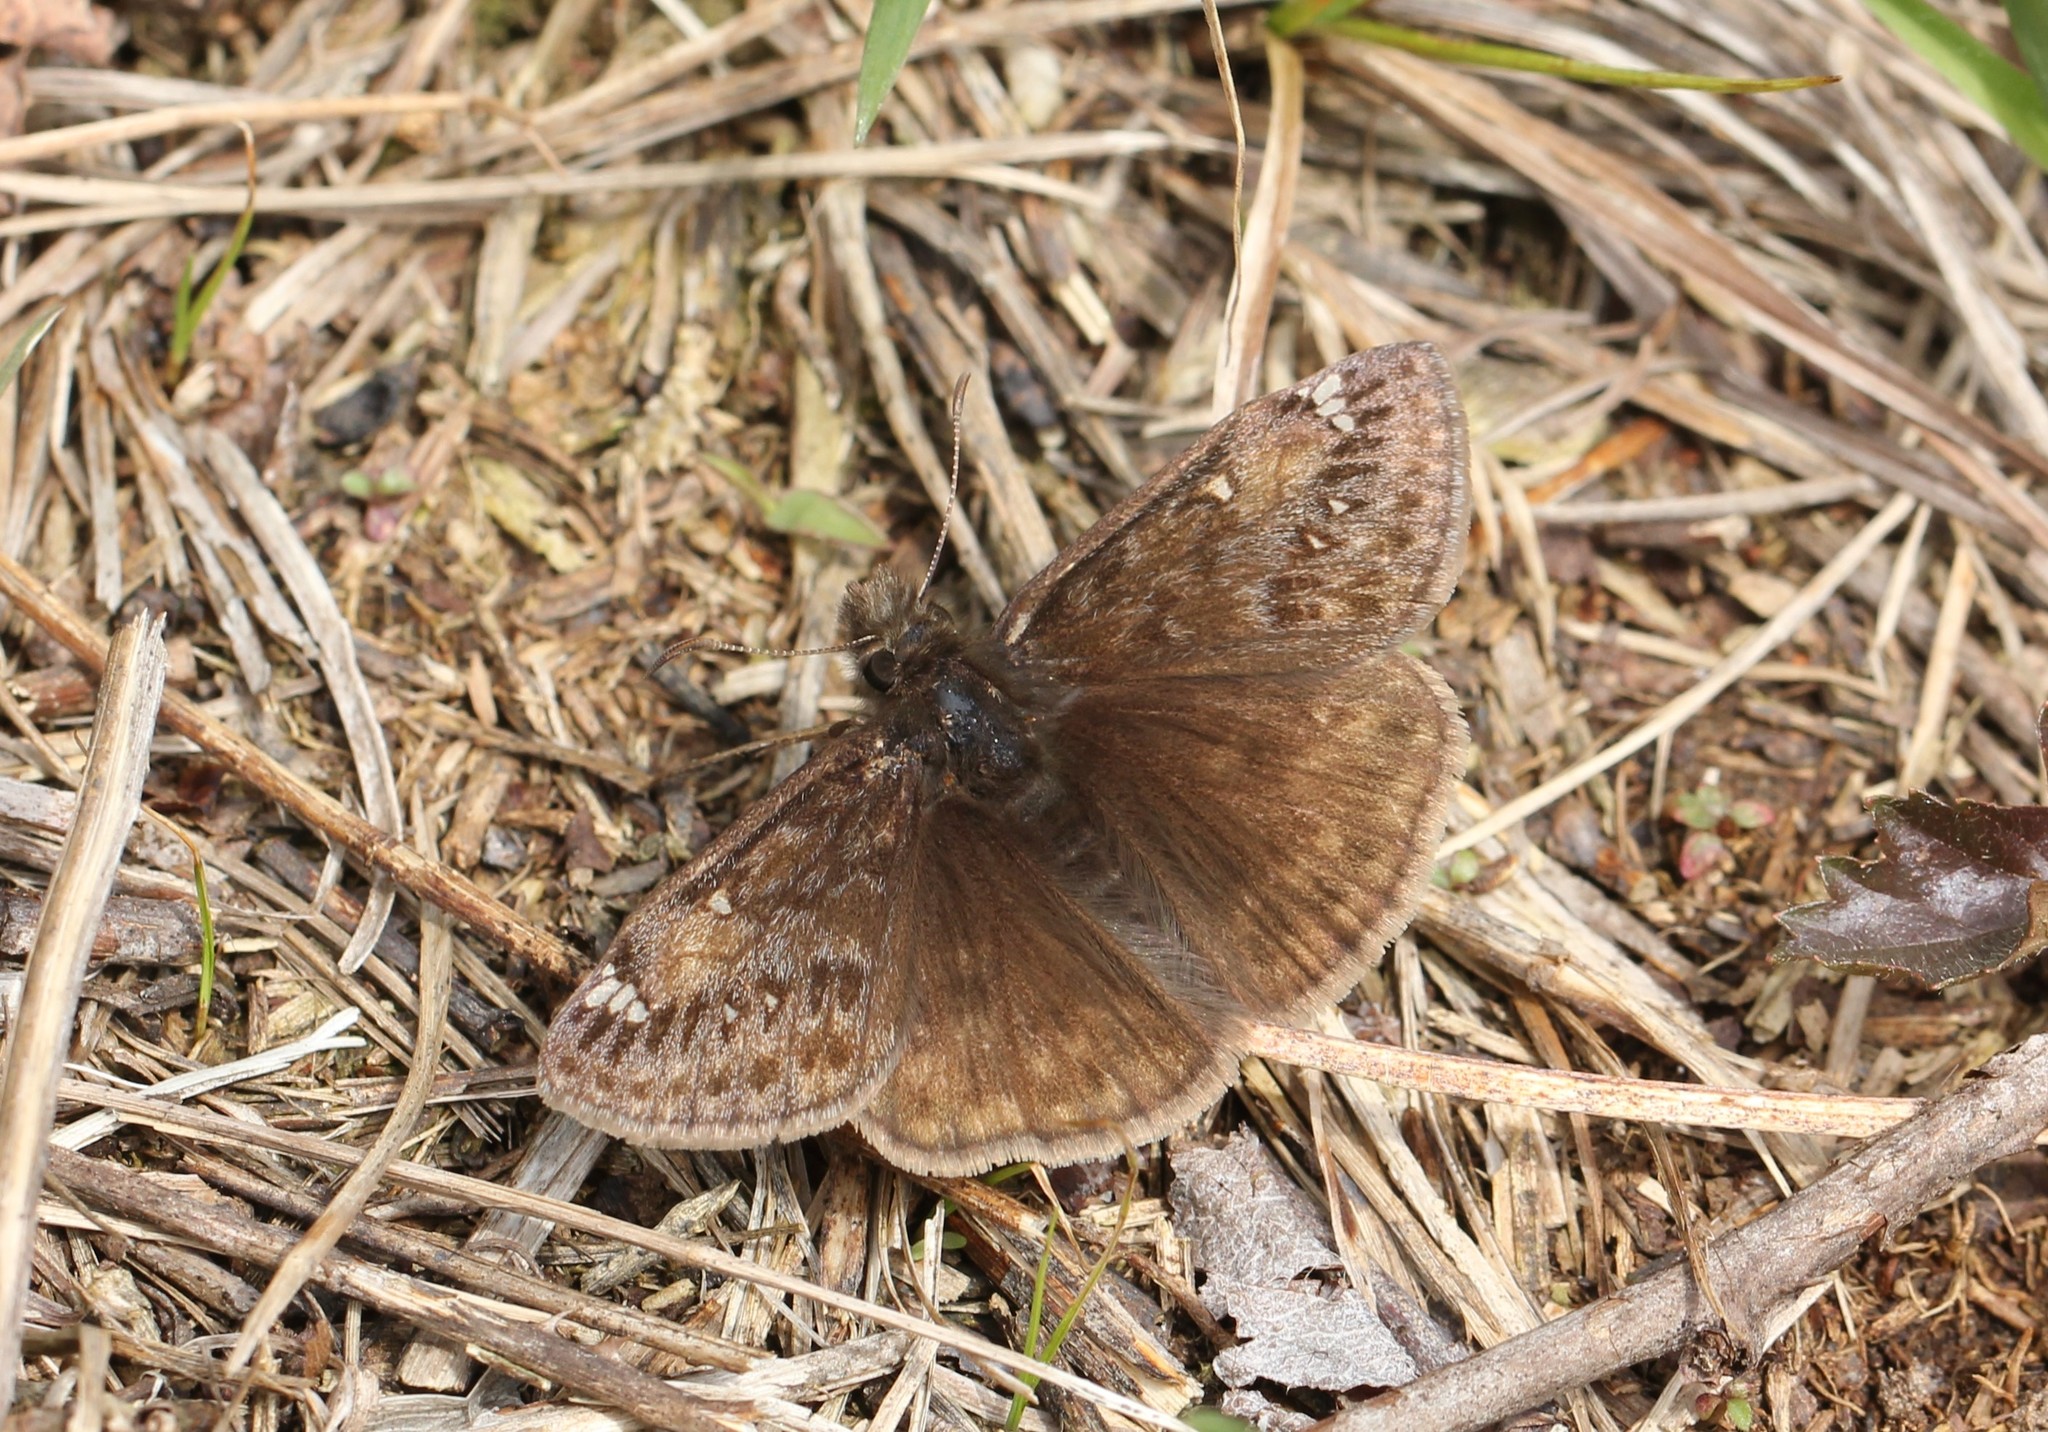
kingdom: Animalia
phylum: Arthropoda
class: Insecta
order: Lepidoptera
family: Hesperiidae
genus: Erynnis
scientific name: Erynnis juvenalis
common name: Juvenal's duskywing
